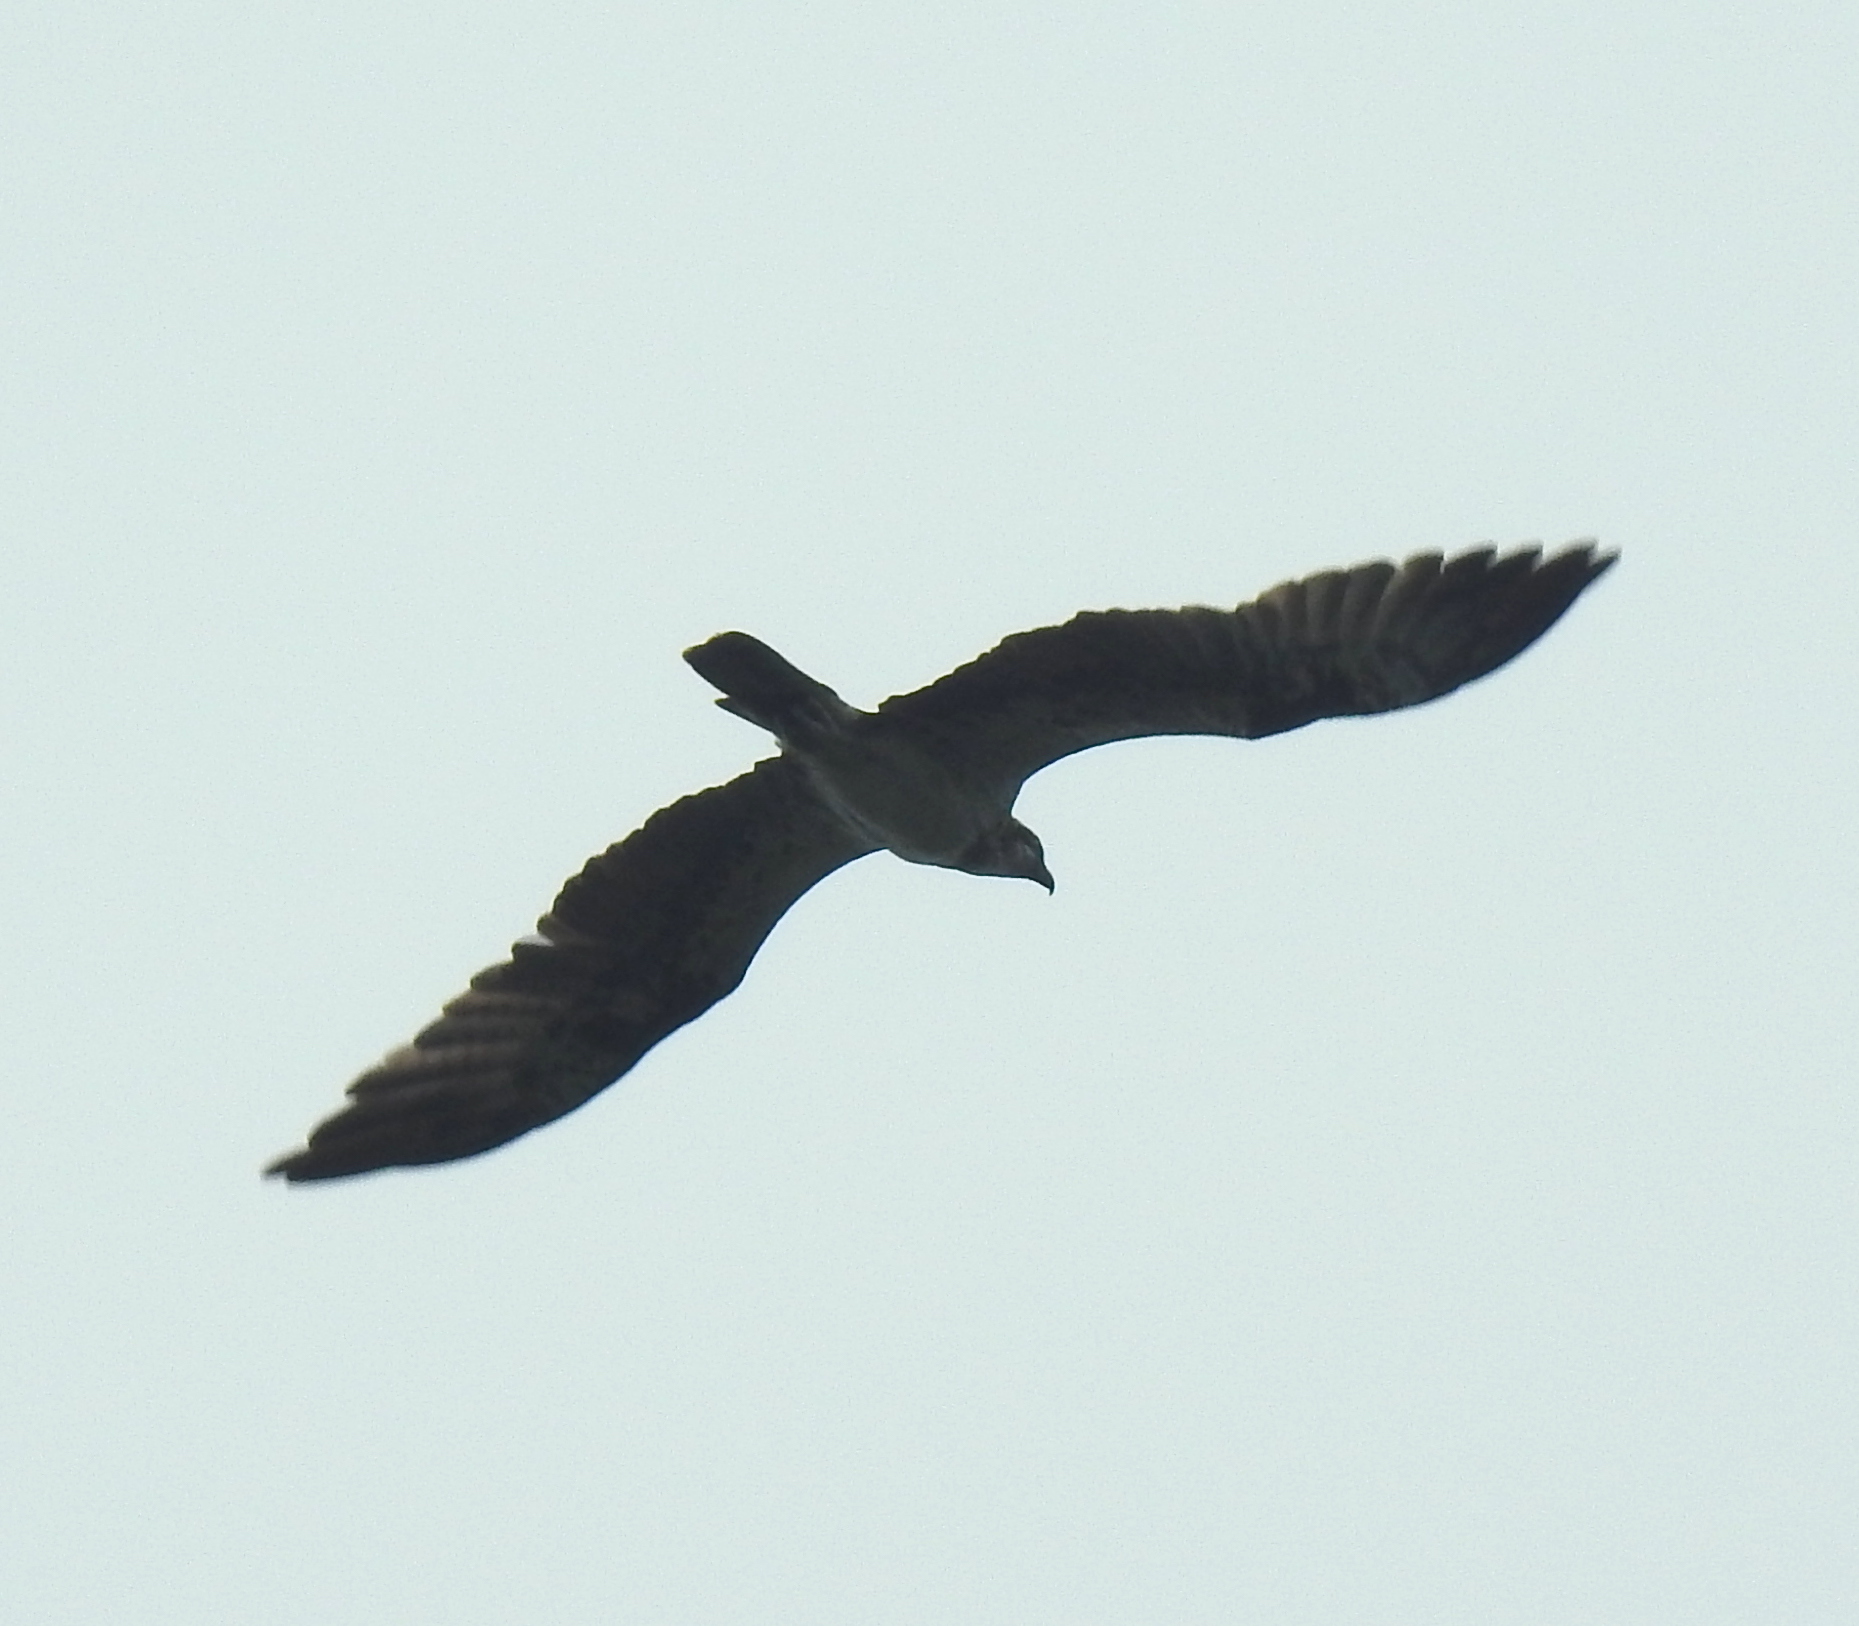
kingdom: Animalia
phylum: Chordata
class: Aves
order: Accipitriformes
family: Pandionidae
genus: Pandion
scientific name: Pandion haliaetus
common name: Osprey
